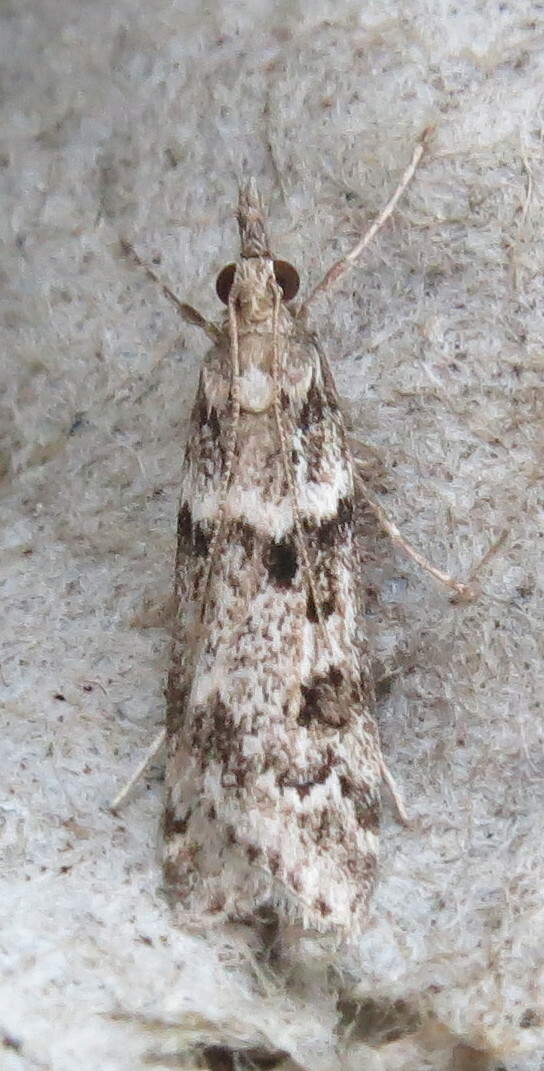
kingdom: Animalia
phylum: Arthropoda
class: Insecta
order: Lepidoptera
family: Crambidae
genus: Eudonia
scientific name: Eudonia angustea
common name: Narrow-winged grey
